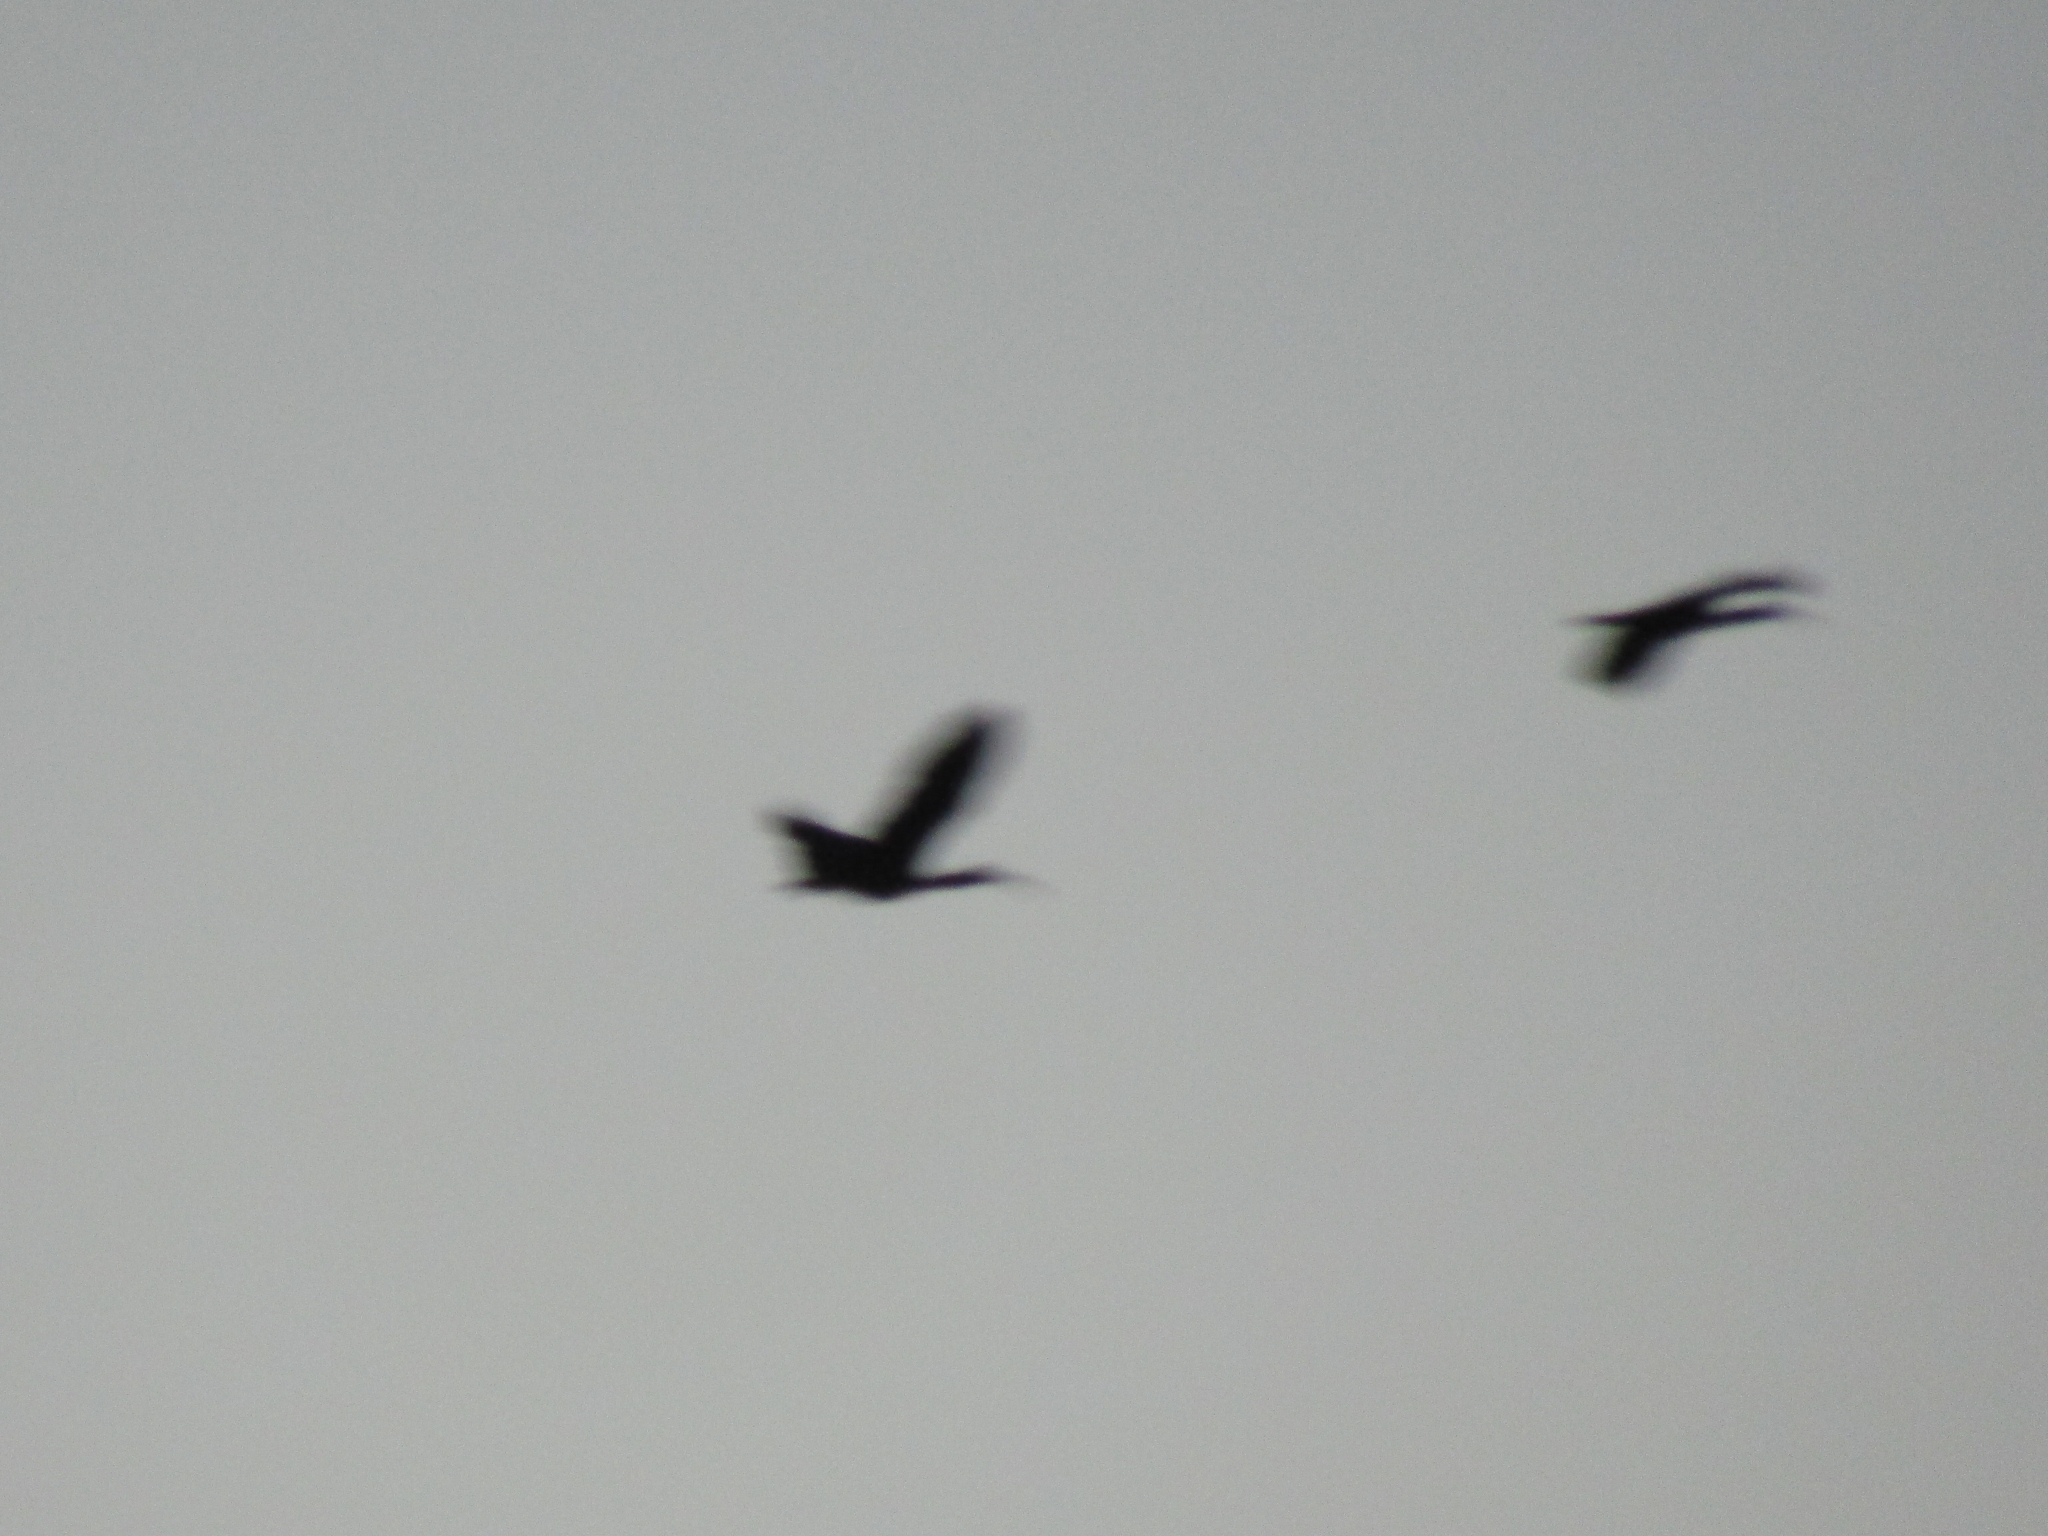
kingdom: Animalia
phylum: Chordata
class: Aves
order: Pelecaniformes
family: Threskiornithidae
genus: Phimosus
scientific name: Phimosus infuscatus
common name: Bare-faced ibis
